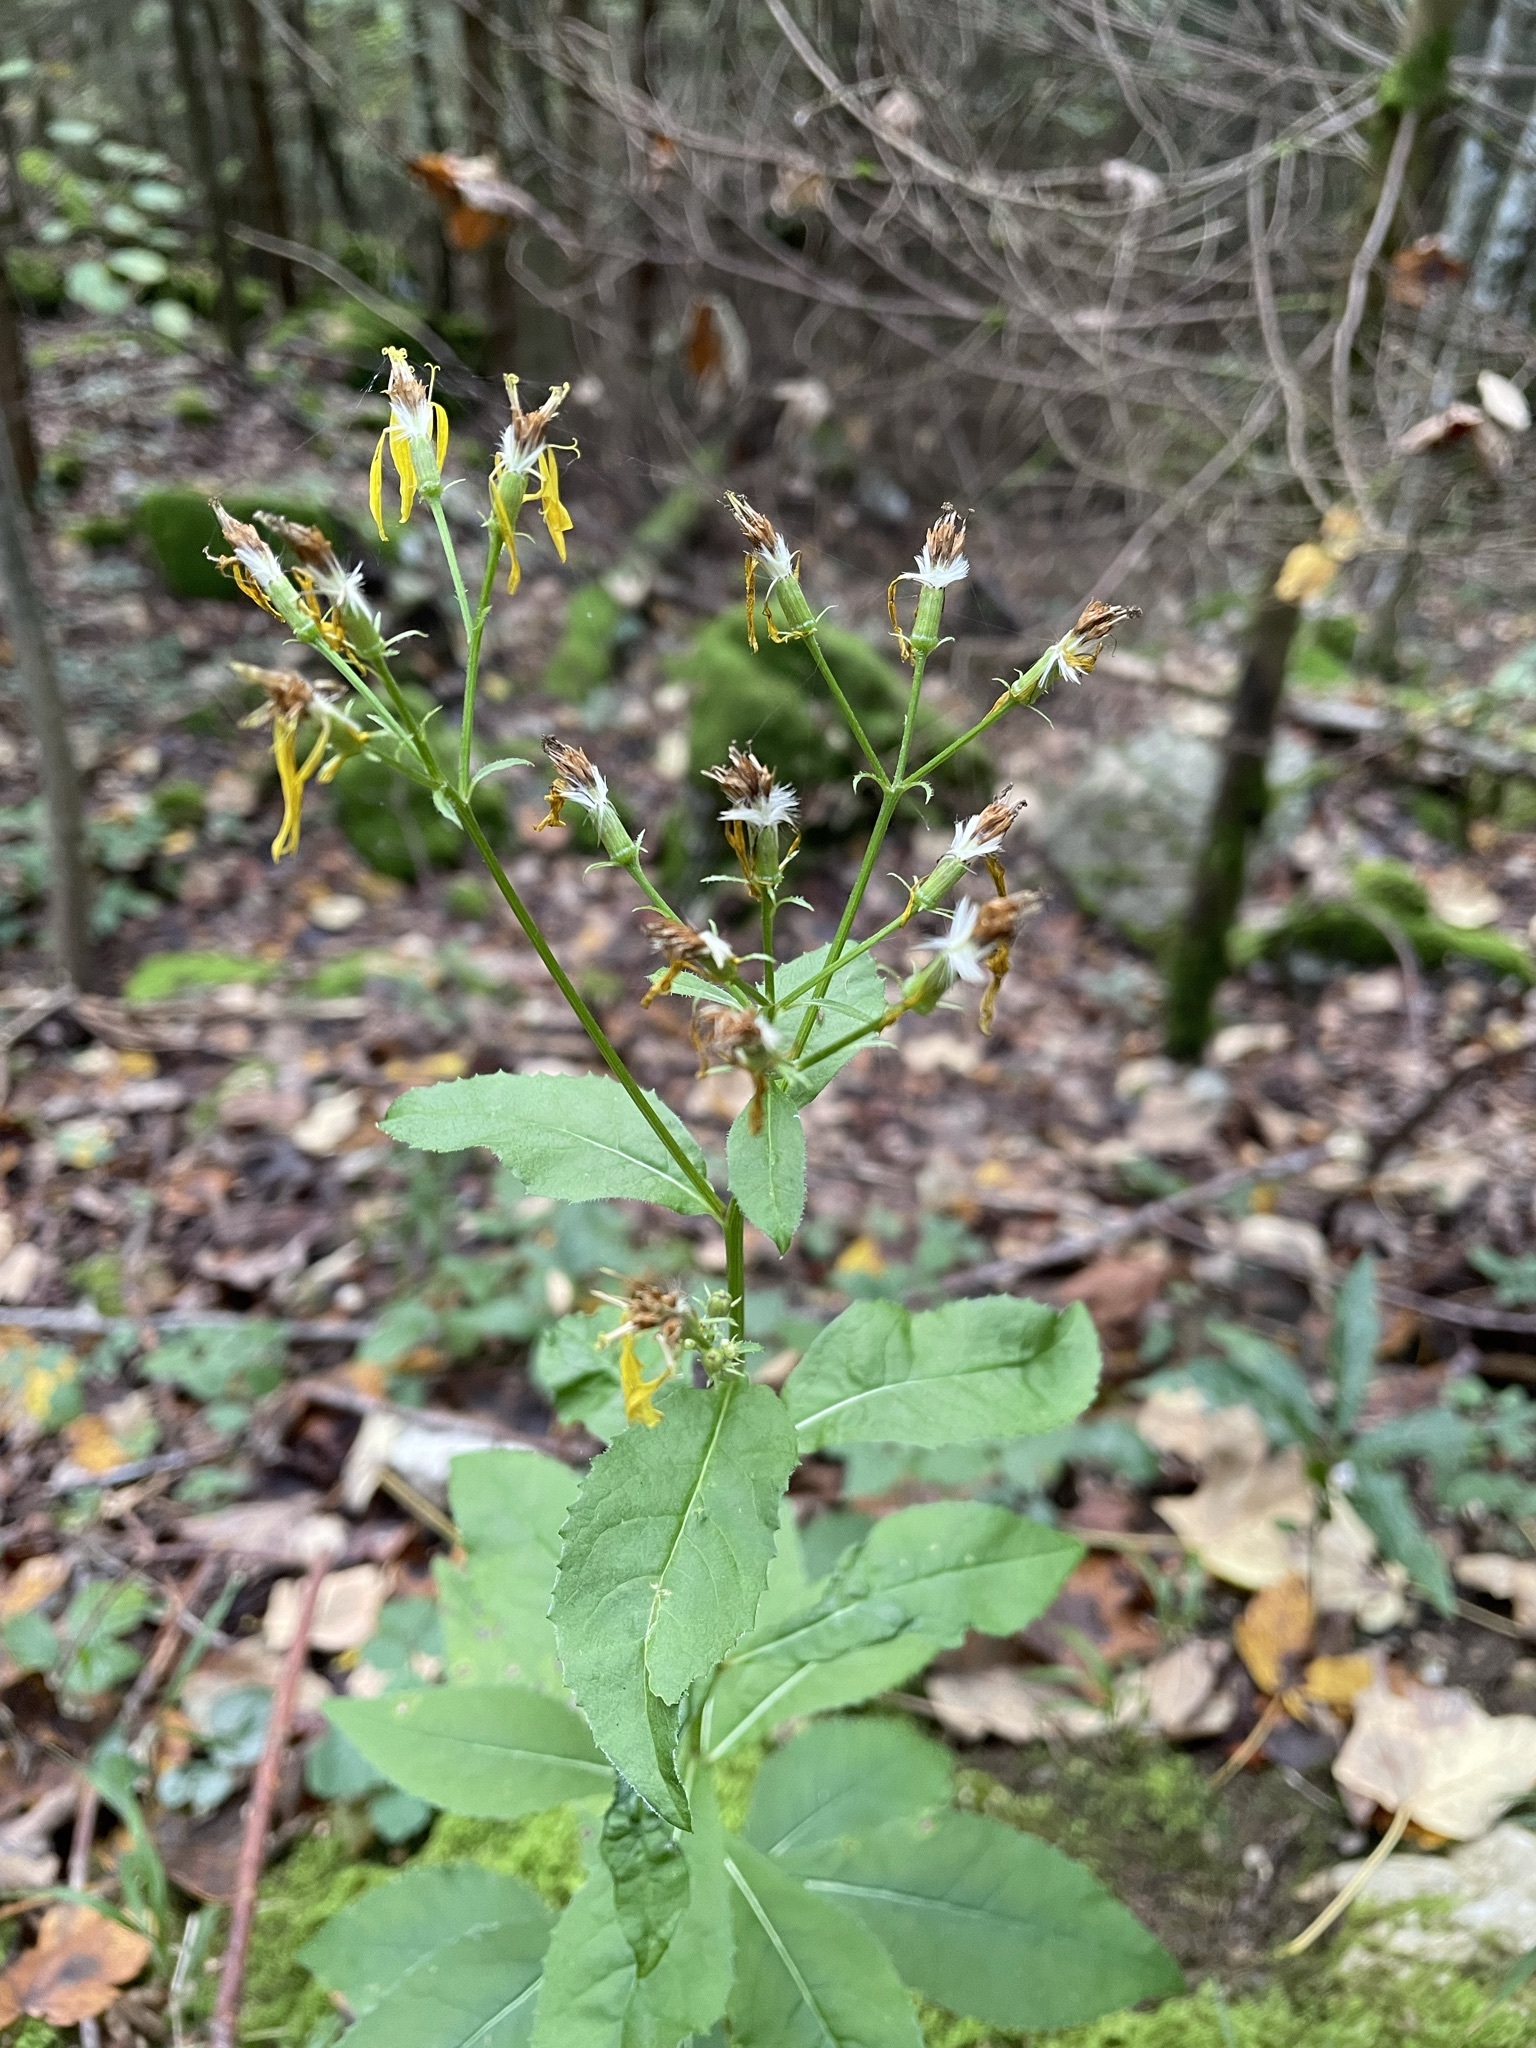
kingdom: Plantae
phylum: Tracheophyta
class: Magnoliopsida
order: Asterales
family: Asteraceae
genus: Senecio
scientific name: Senecio ovatus
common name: Wood ragwort
